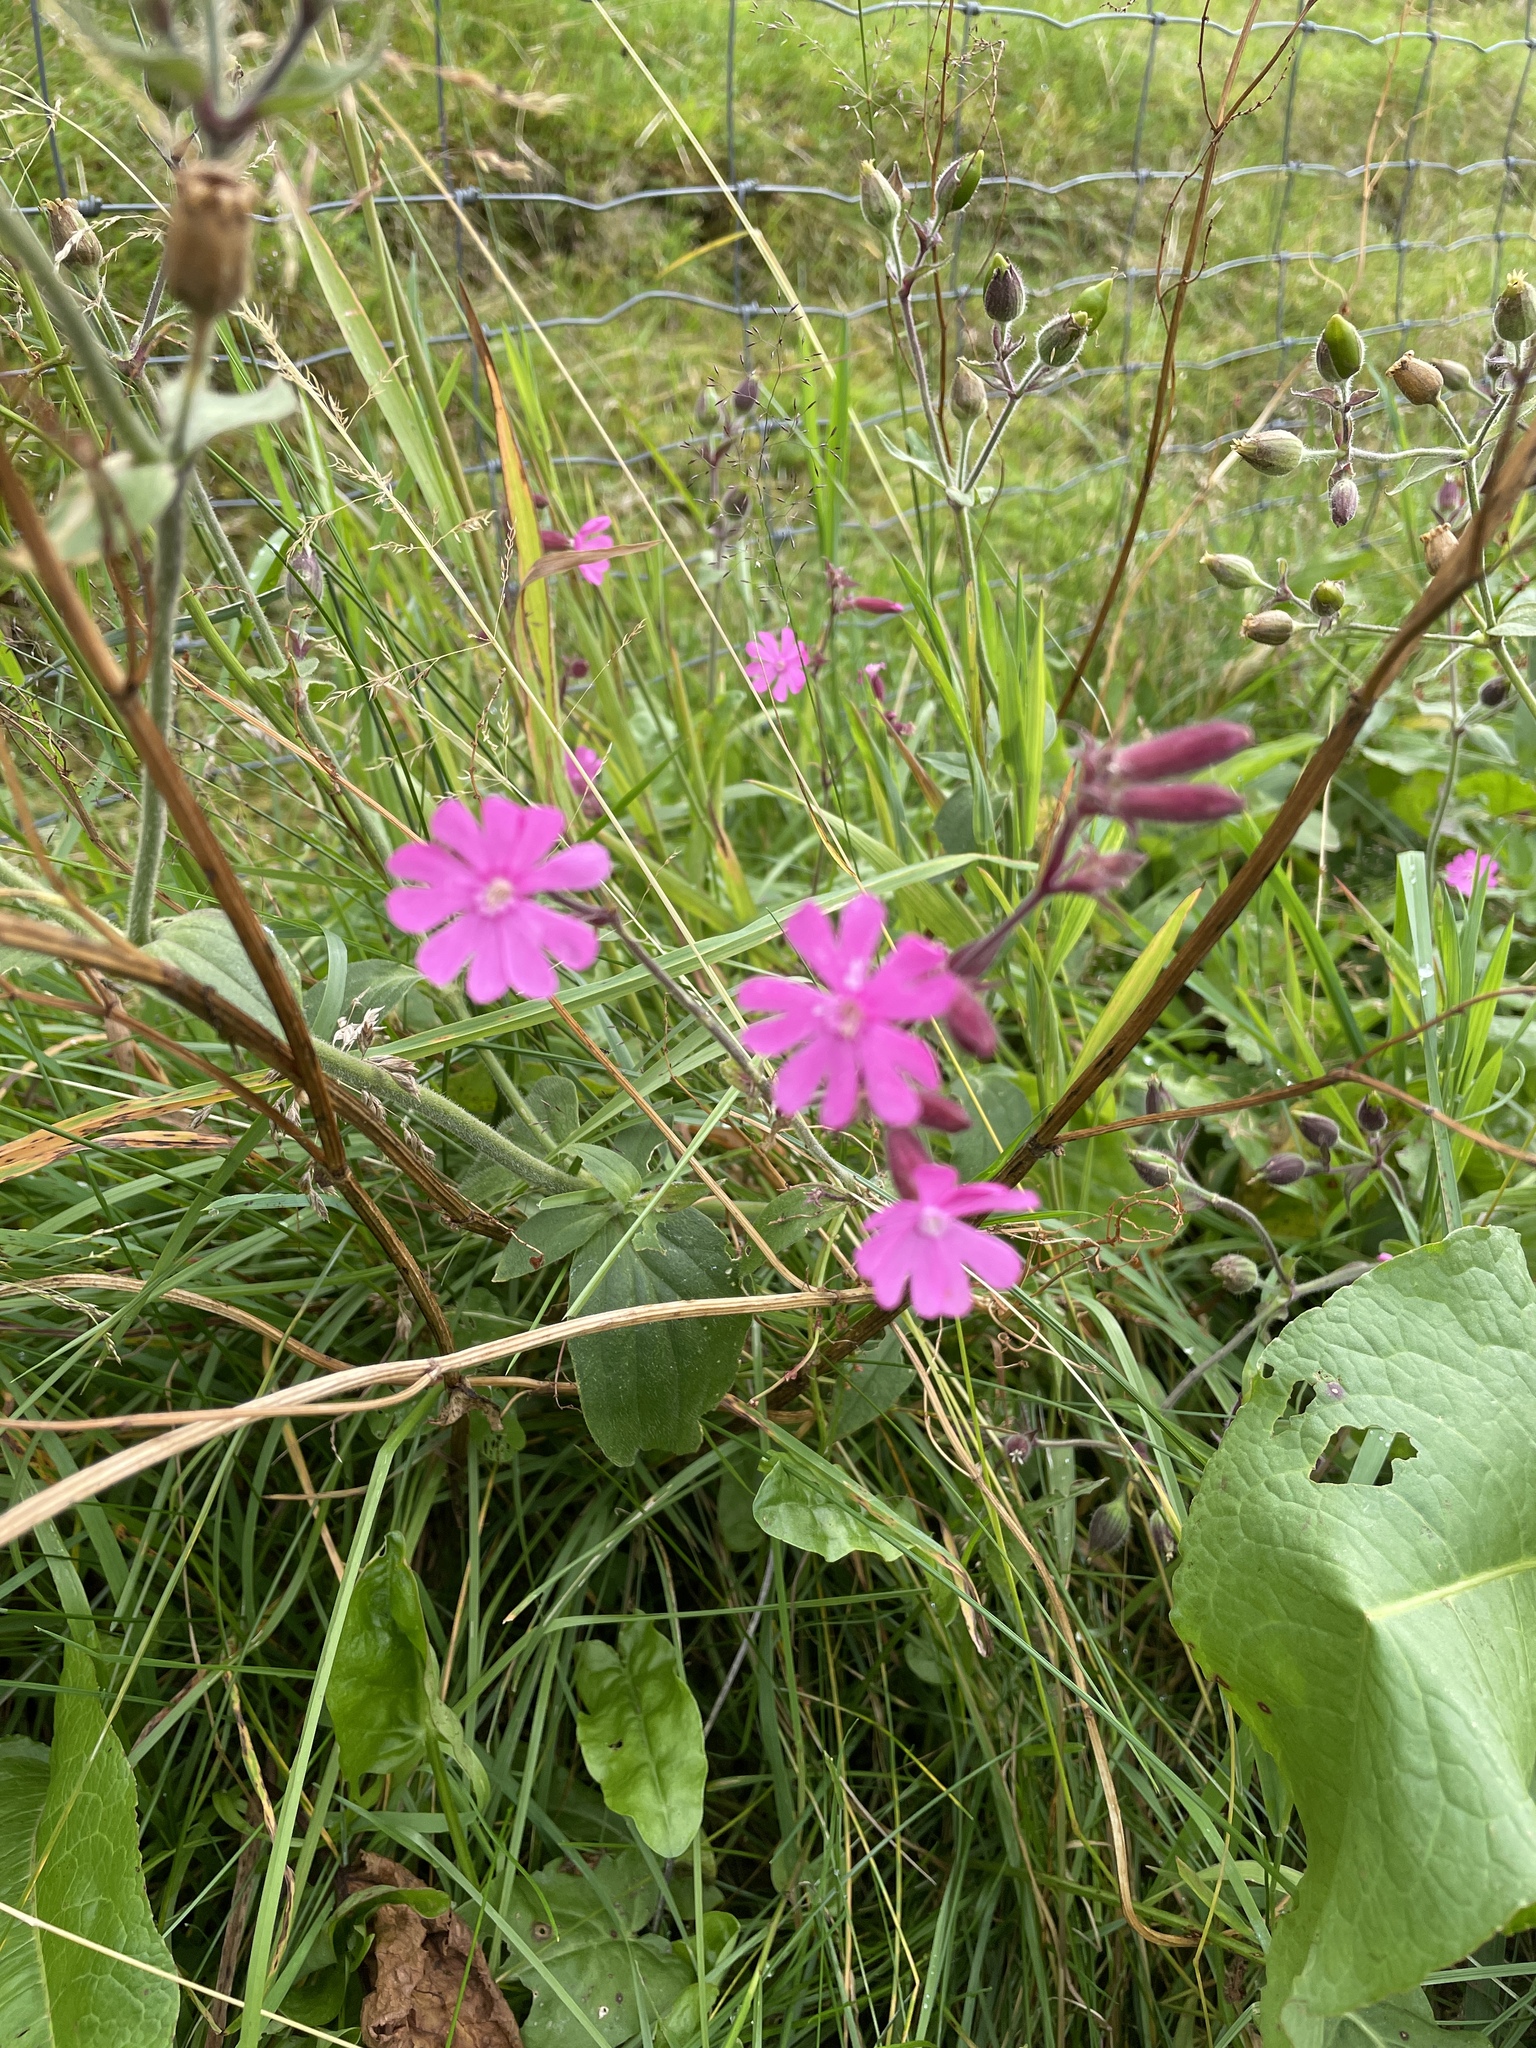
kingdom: Plantae
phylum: Tracheophyta
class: Magnoliopsida
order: Caryophyllales
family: Caryophyllaceae
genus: Silene
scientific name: Silene dioica
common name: Red campion
